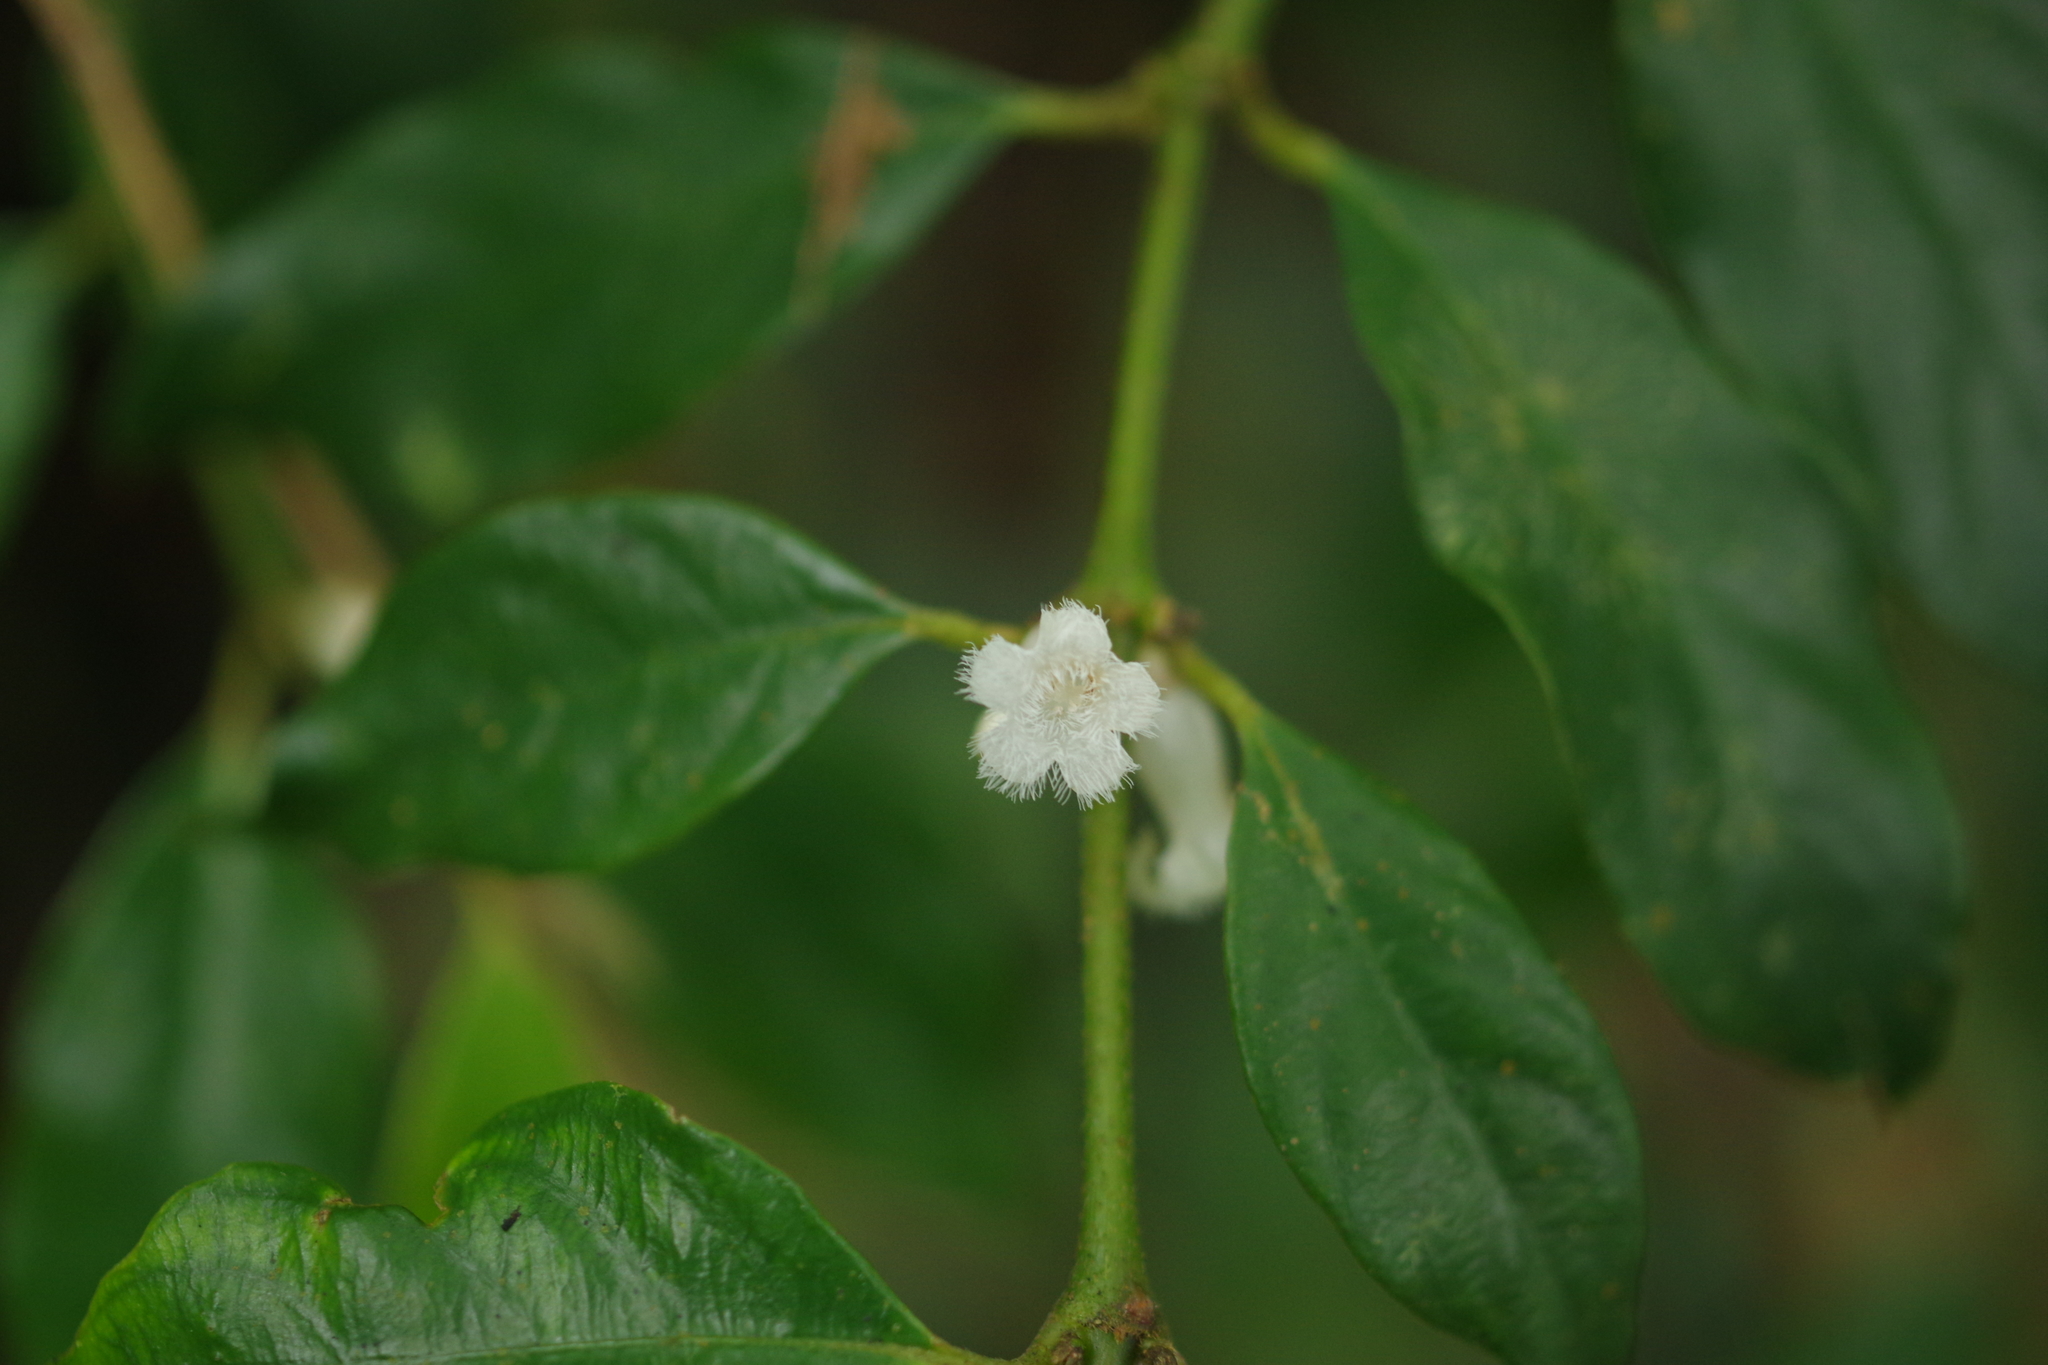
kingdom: Plantae
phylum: Tracheophyta
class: Magnoliopsida
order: Gentianales
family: Rubiaceae
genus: Lasianthus
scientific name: Lasianthus fordii
